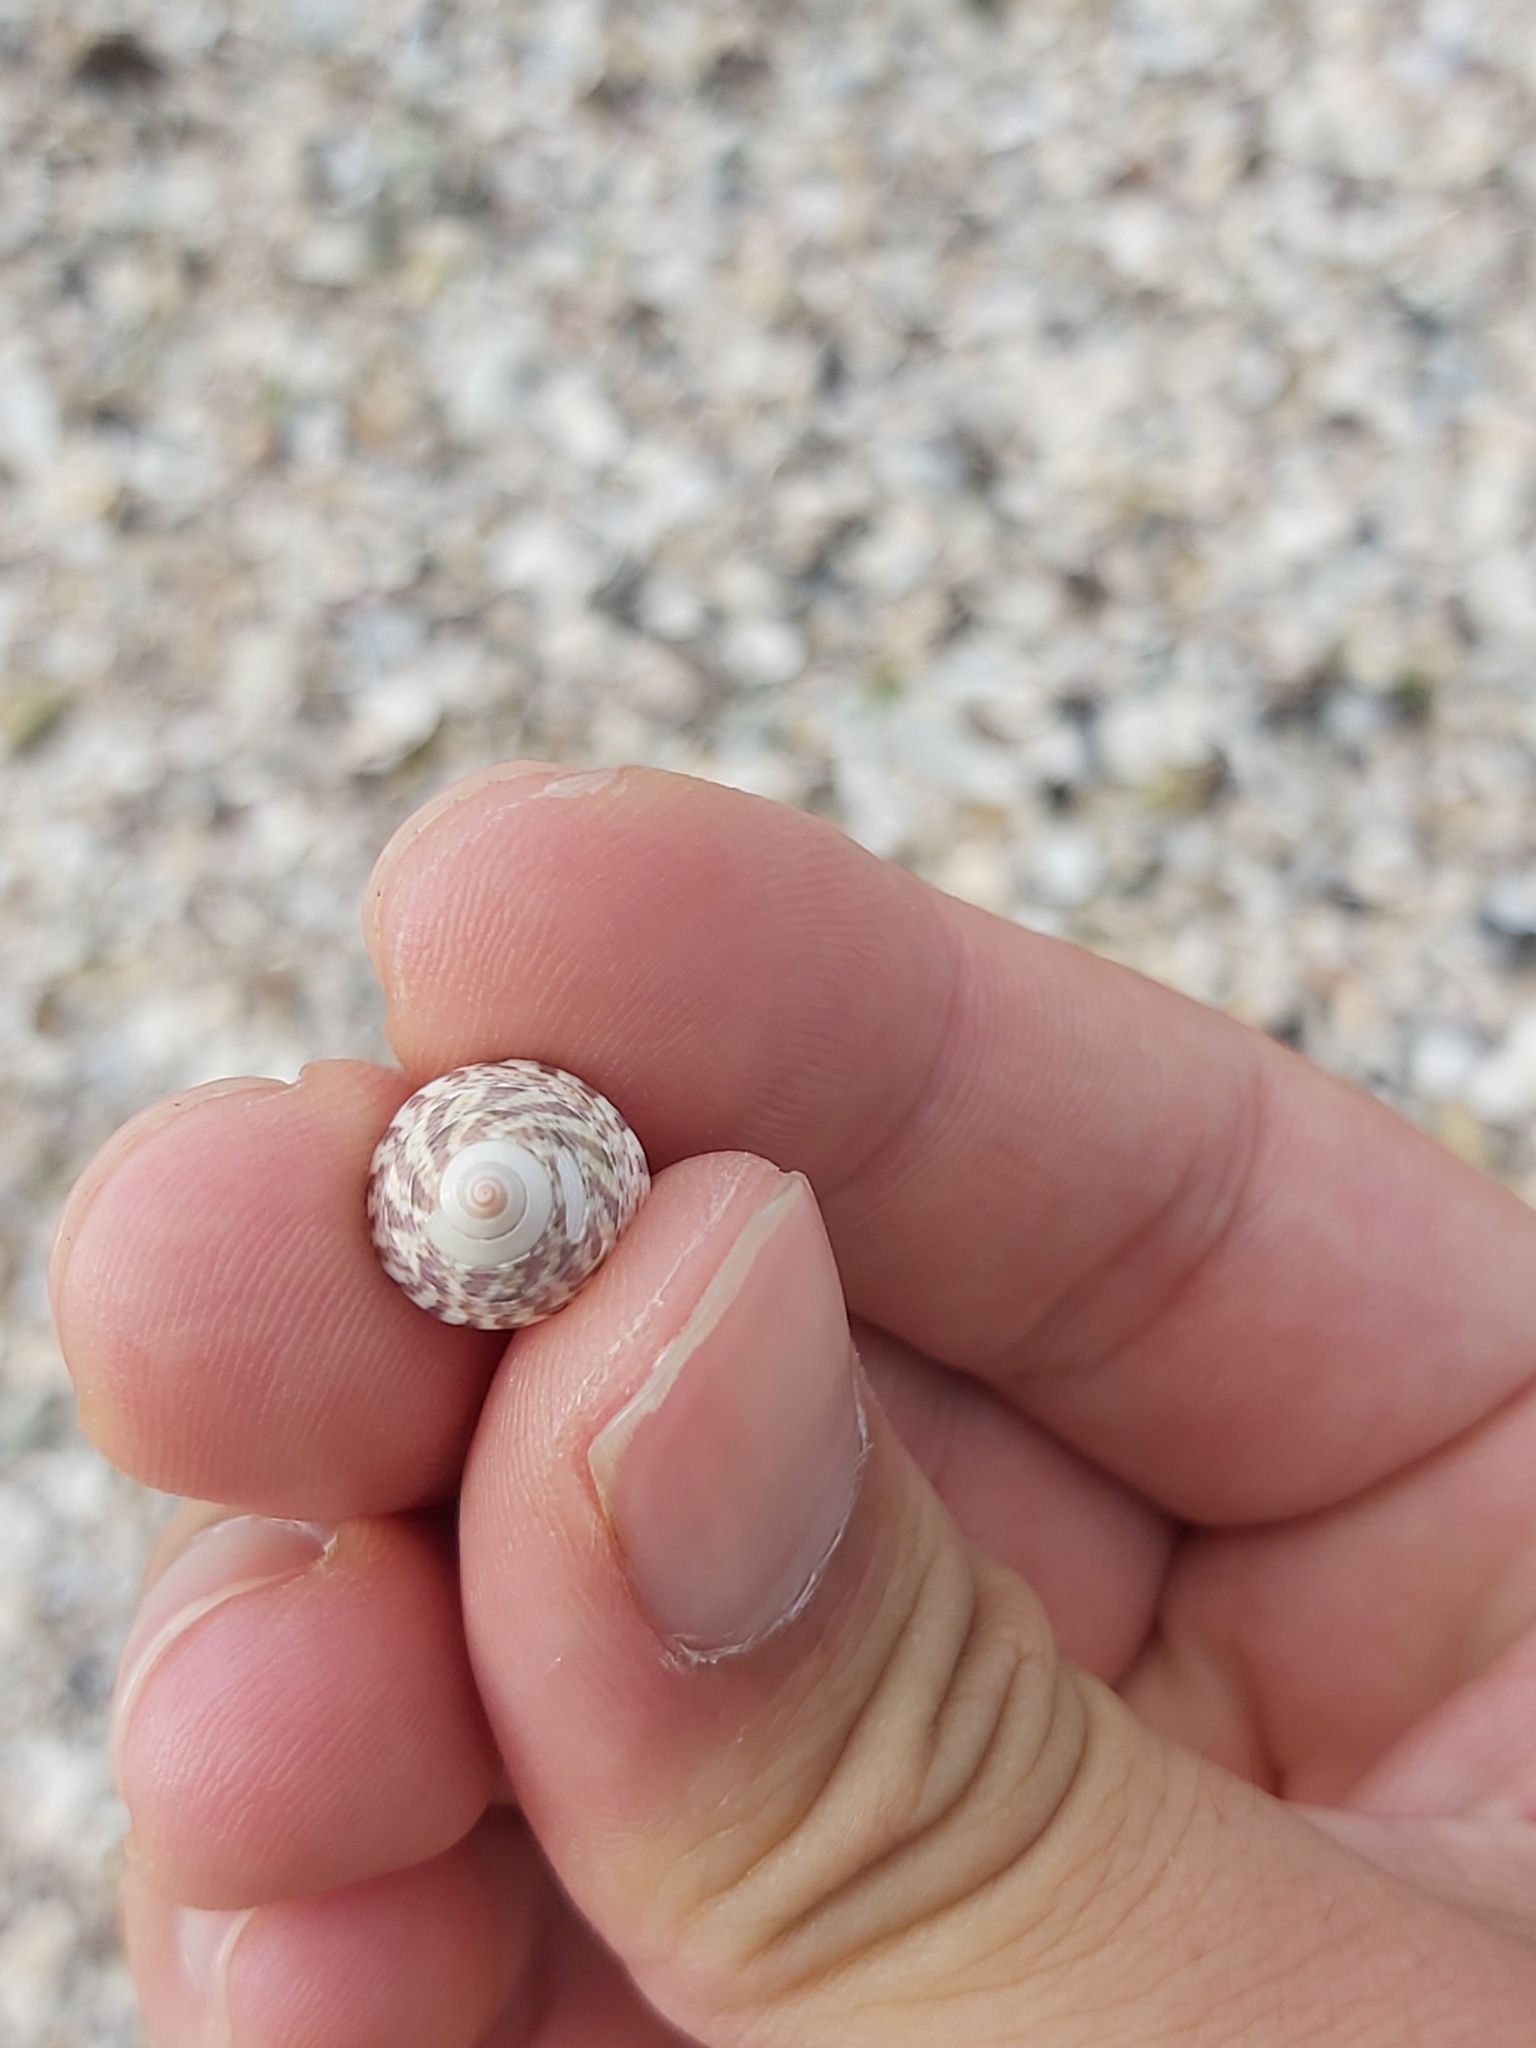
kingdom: Animalia
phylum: Mollusca
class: Gastropoda
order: Trochida
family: Trochidae
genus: Calthalotia
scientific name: Calthalotia strigata
